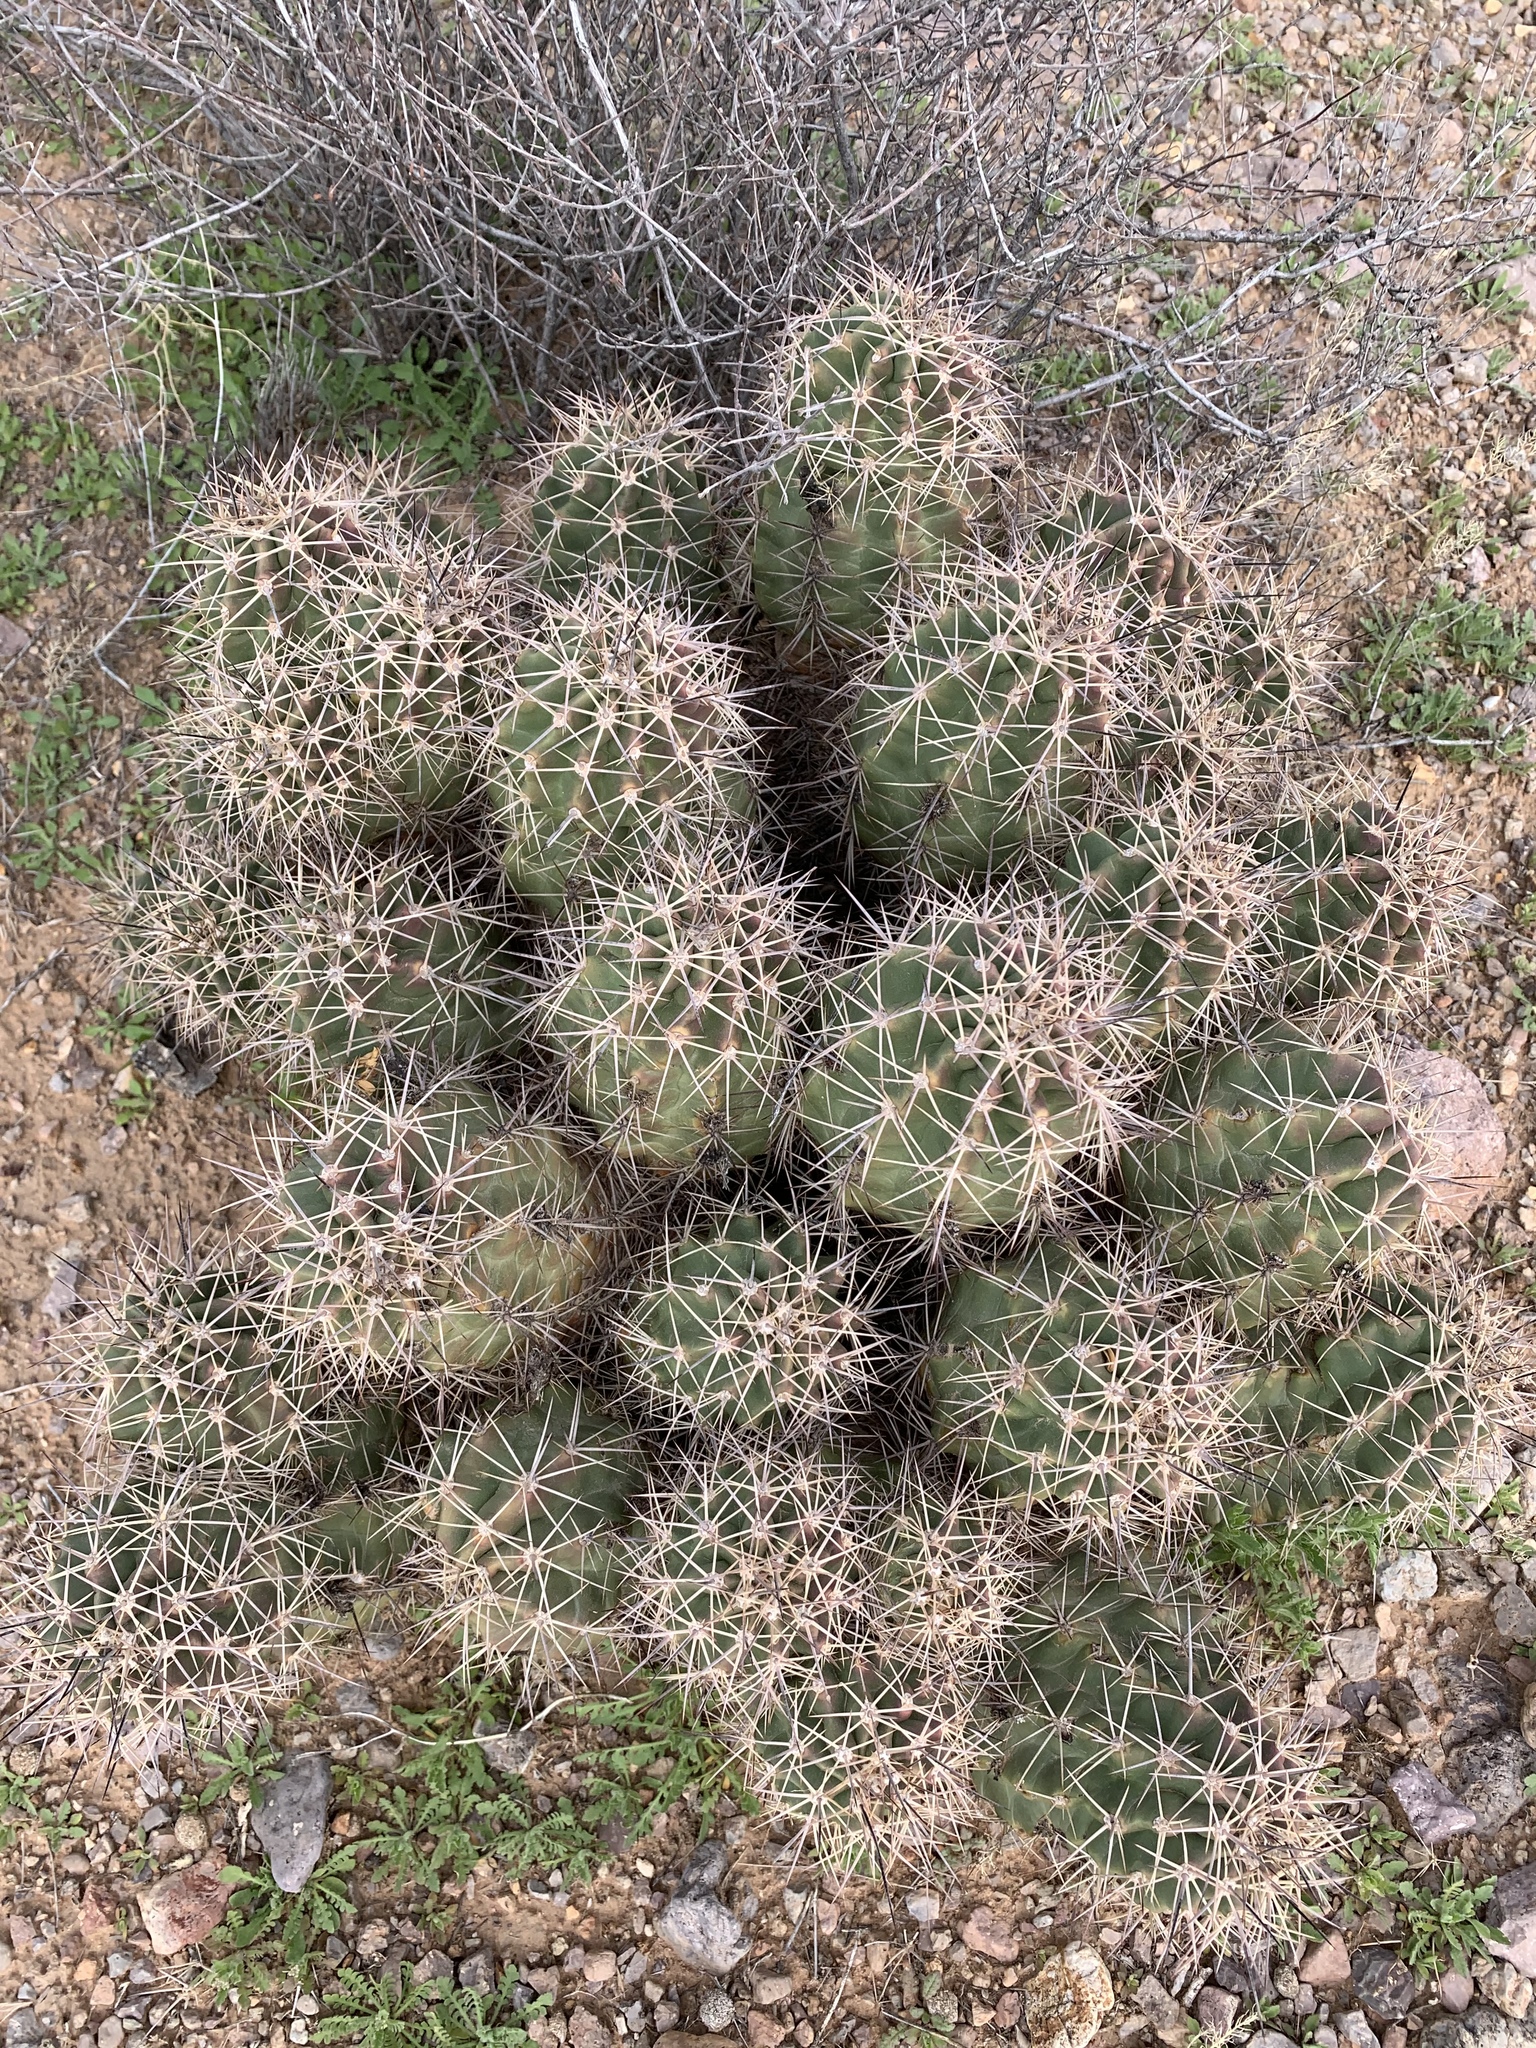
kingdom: Plantae
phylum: Tracheophyta
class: Magnoliopsida
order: Caryophyllales
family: Cactaceae
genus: Echinocereus
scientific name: Echinocereus coccineus
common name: Scarlet hedgehog cactus
